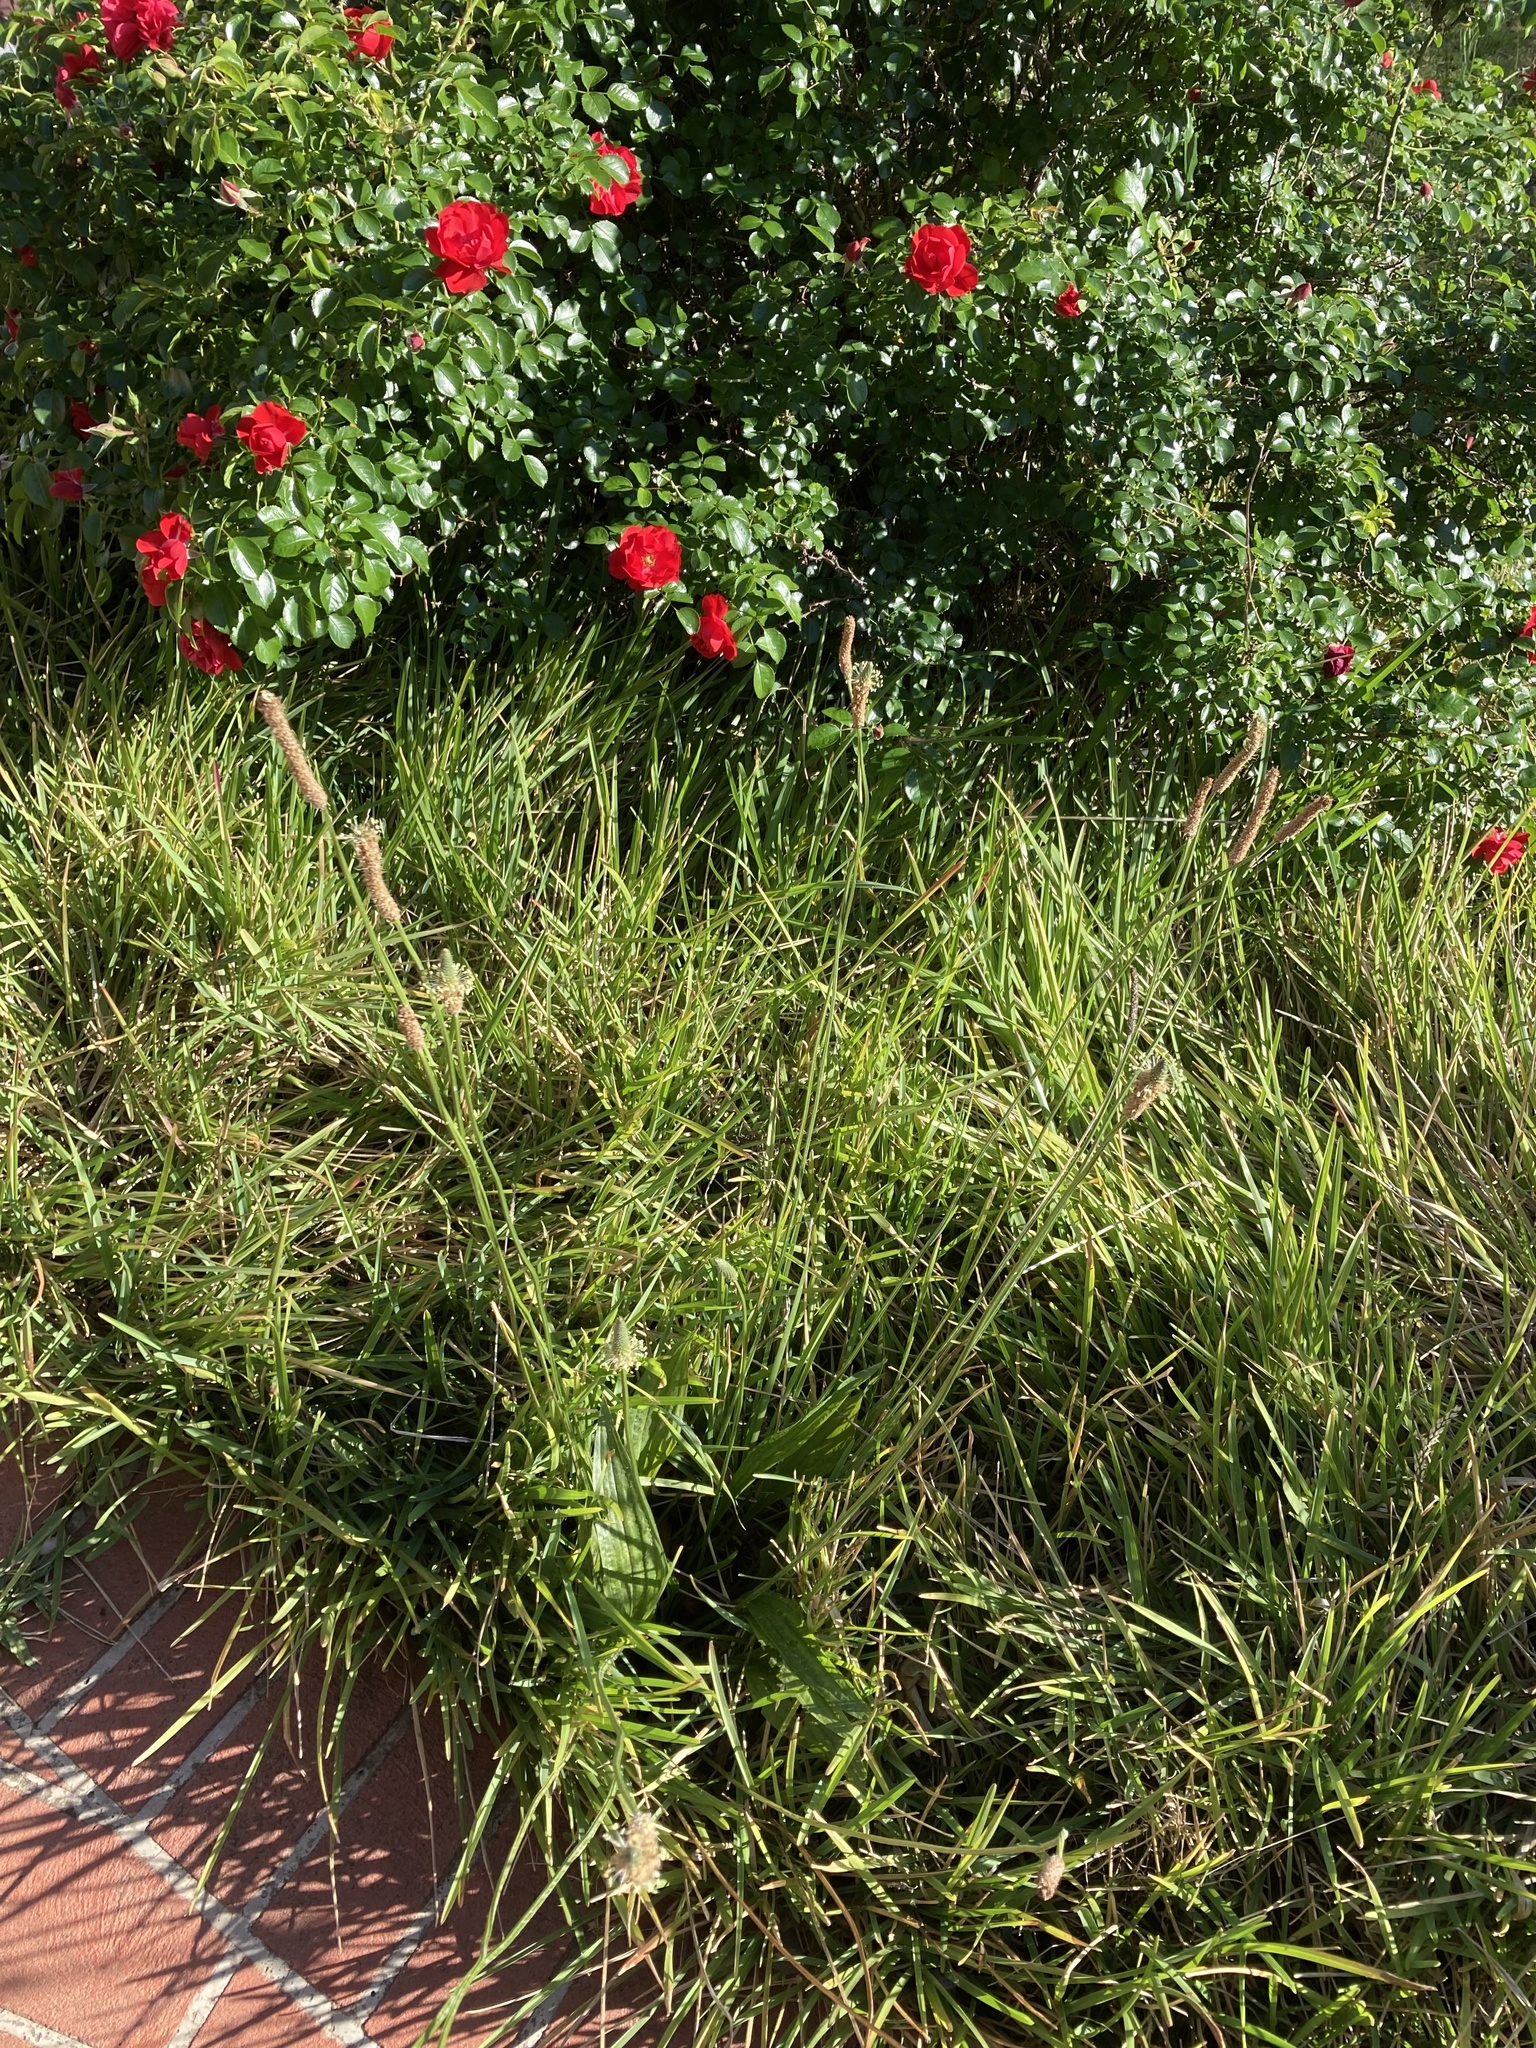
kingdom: Plantae
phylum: Tracheophyta
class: Magnoliopsida
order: Lamiales
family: Plantaginaceae
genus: Plantago
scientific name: Plantago lanceolata
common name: Ribwort plantain
